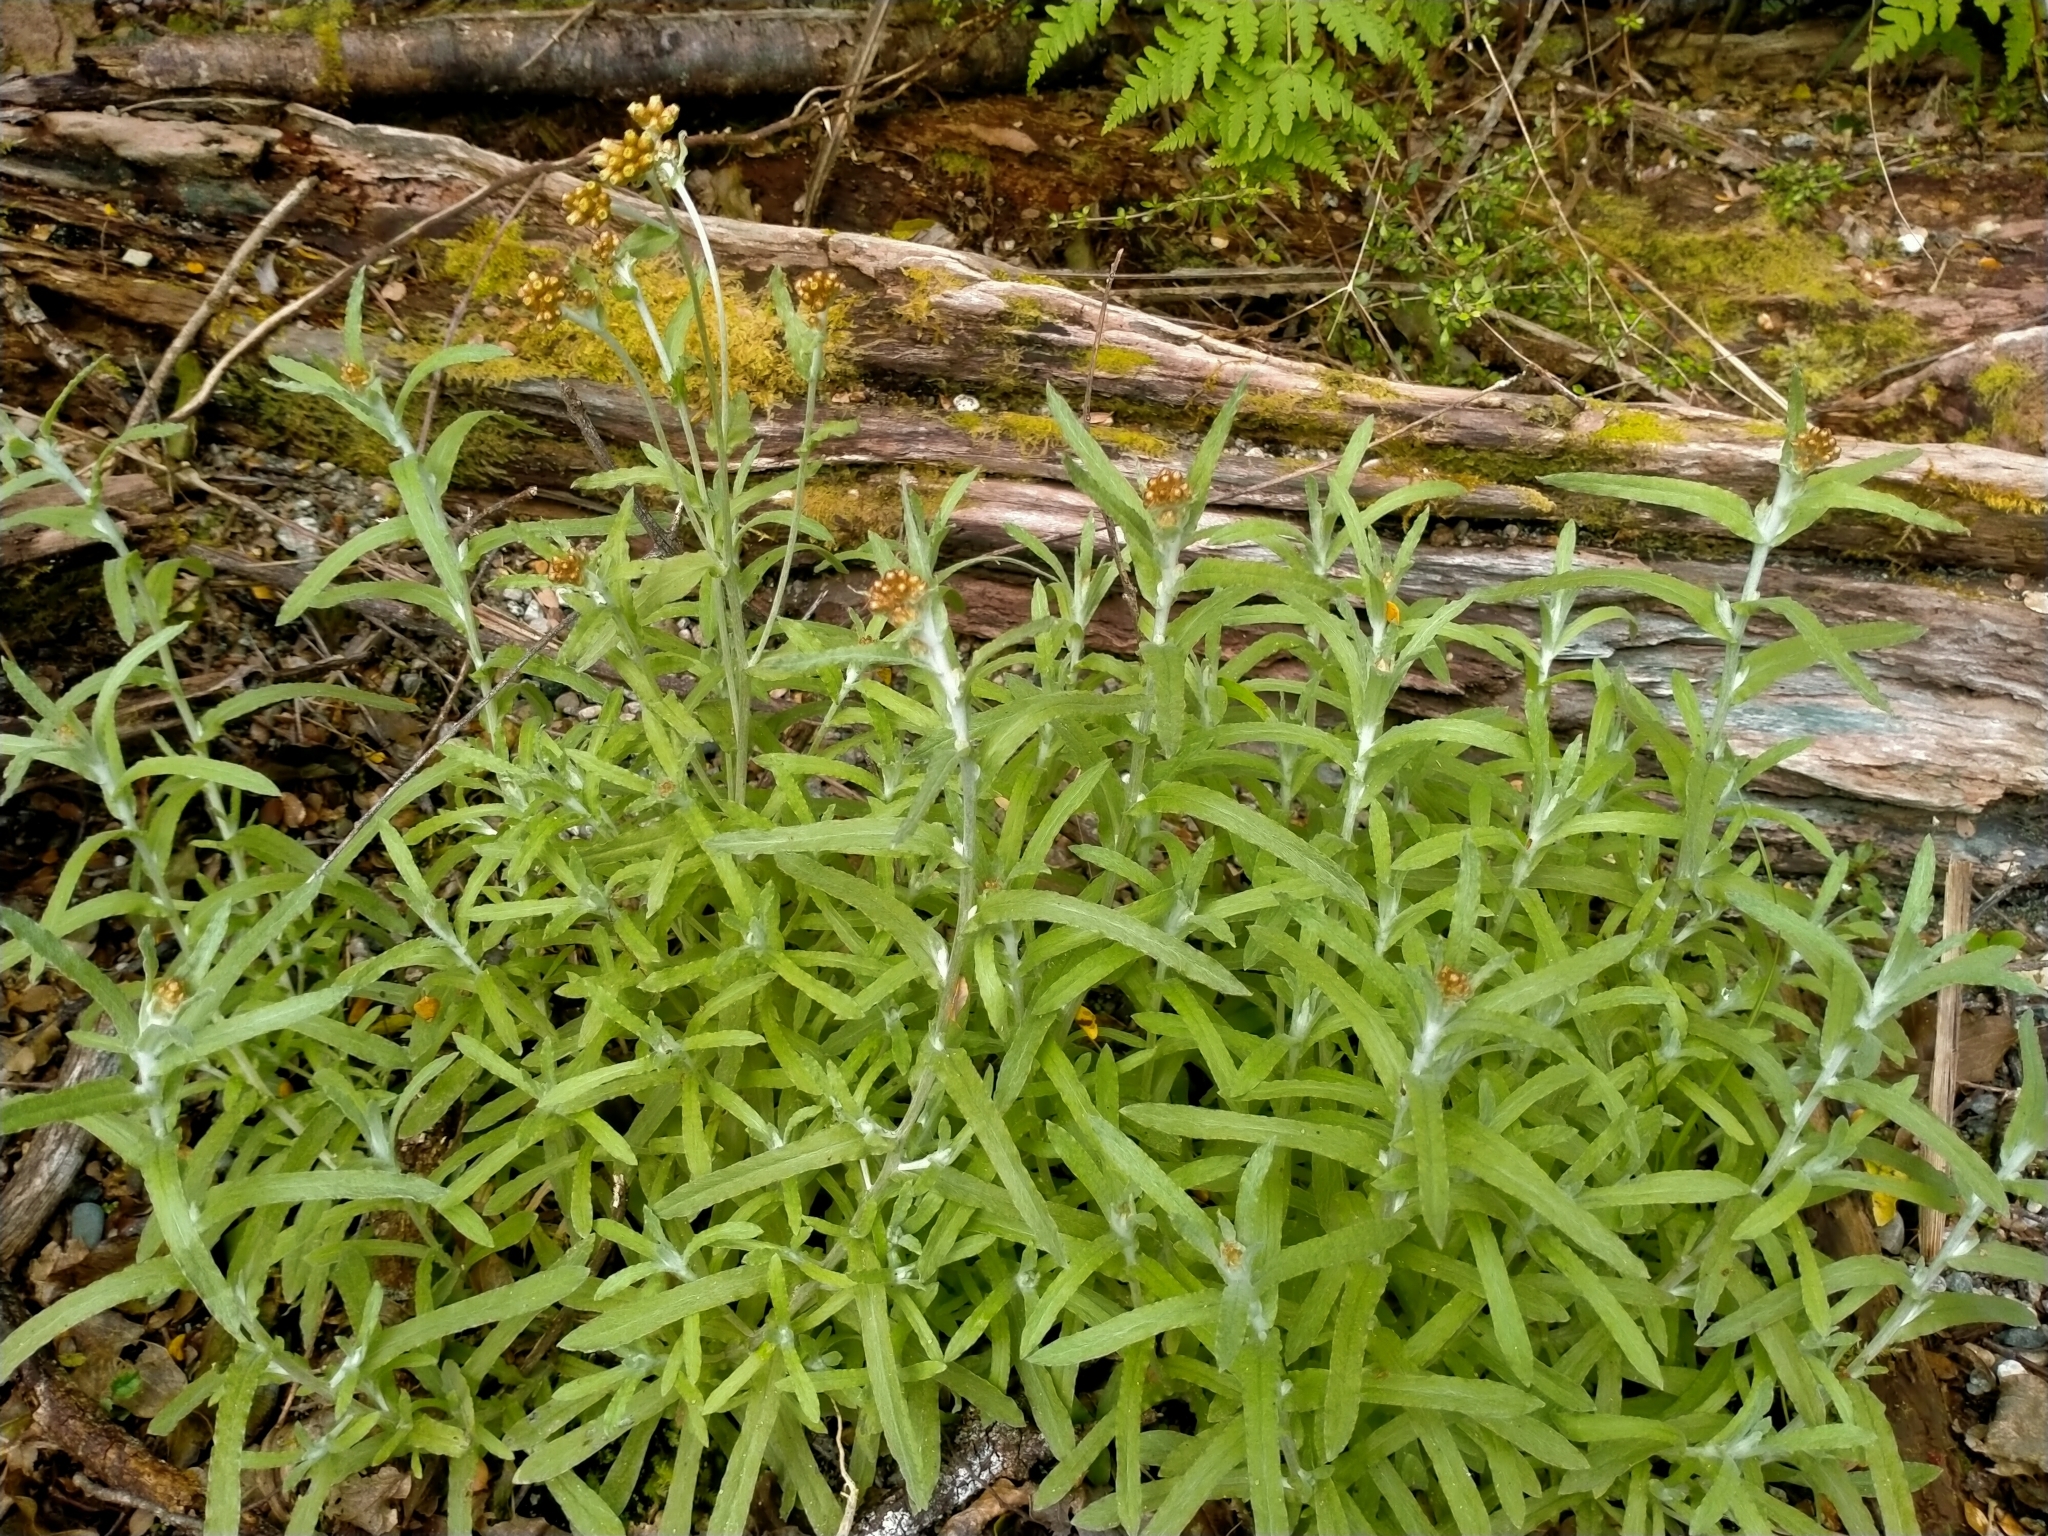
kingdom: Plantae
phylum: Tracheophyta
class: Magnoliopsida
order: Asterales
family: Asteraceae
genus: Pseudognaphalium
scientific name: Pseudognaphalium
